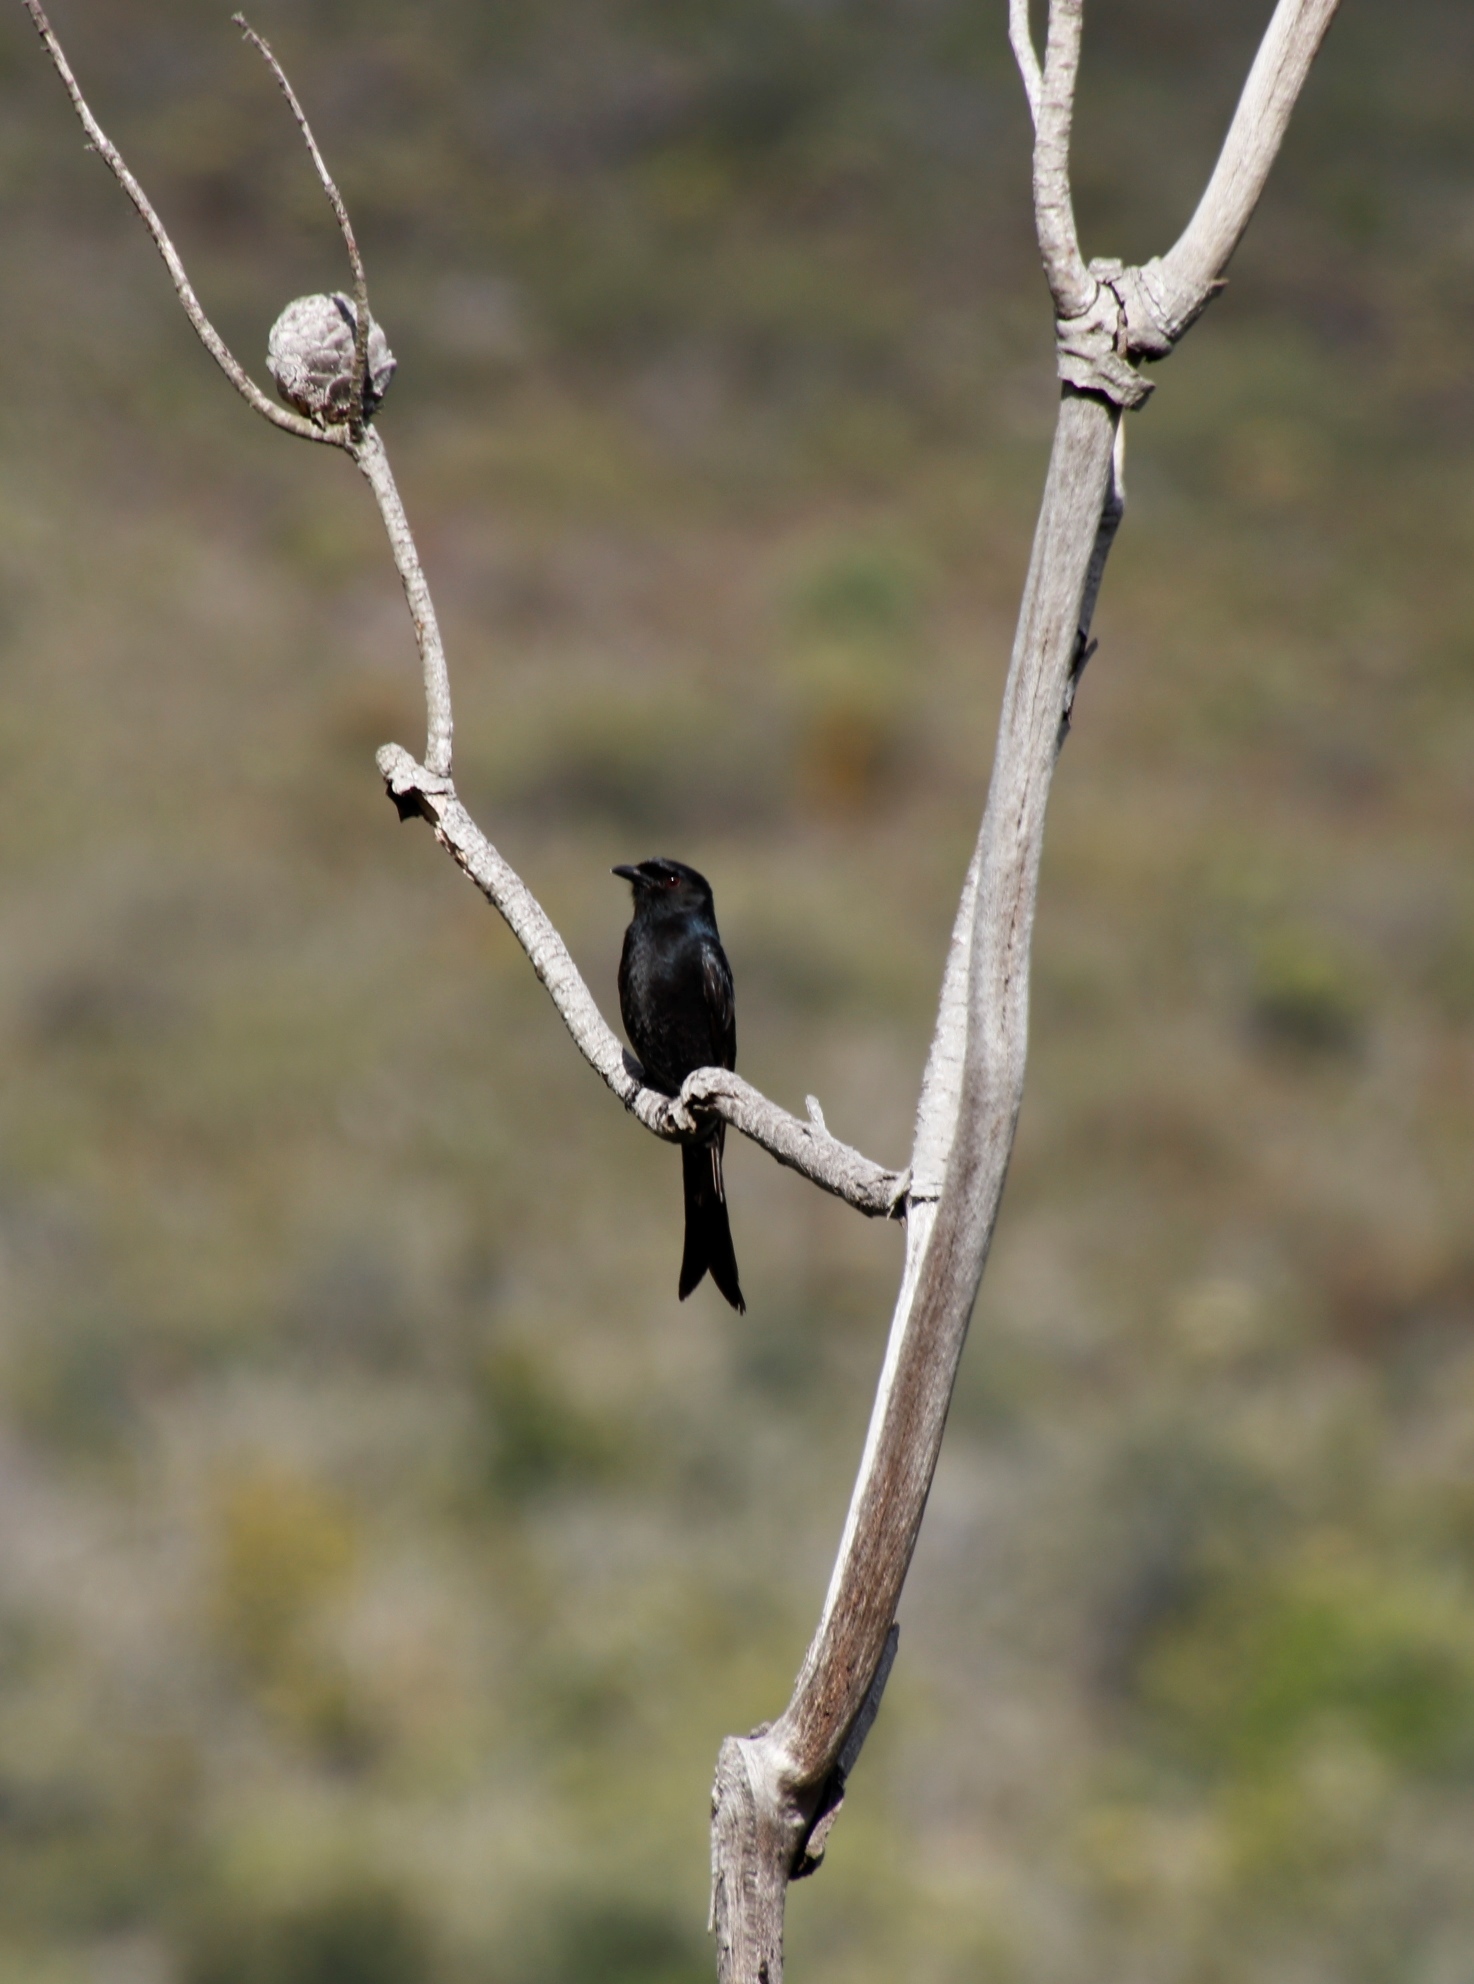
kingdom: Animalia
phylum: Chordata
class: Aves
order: Passeriformes
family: Dicruridae
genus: Dicrurus
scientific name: Dicrurus adsimilis
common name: Fork-tailed drongo
